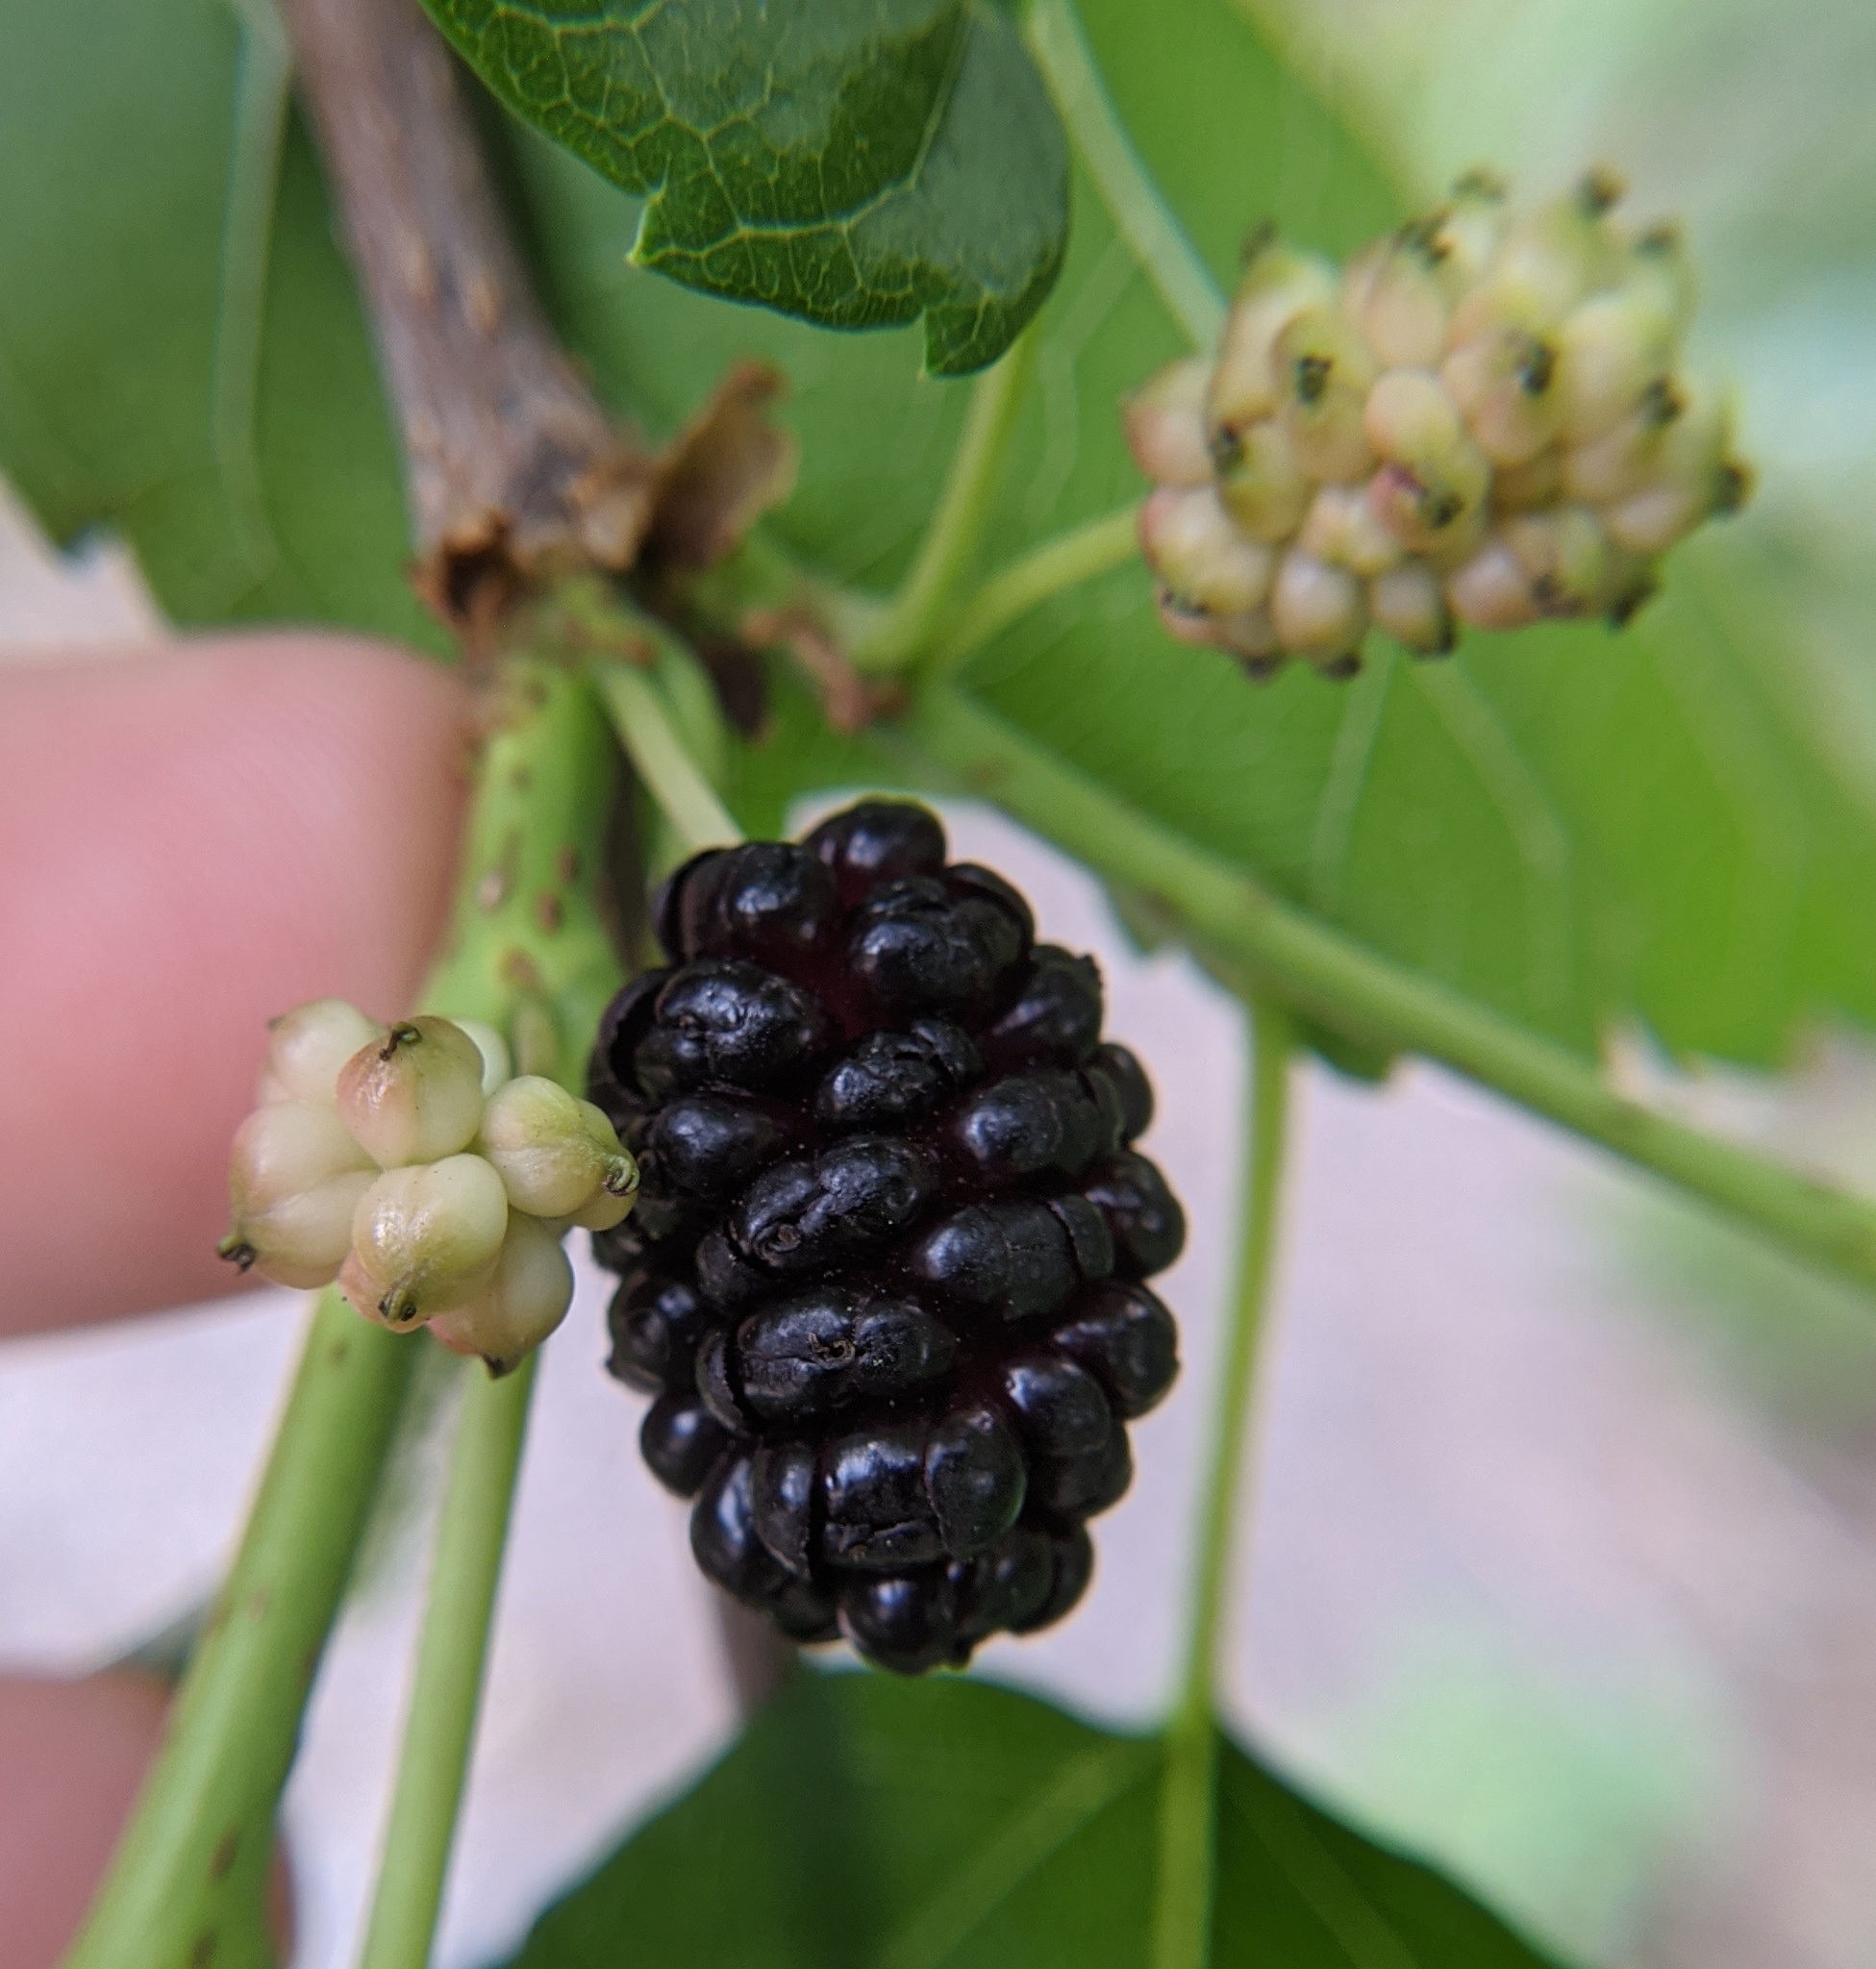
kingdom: Plantae
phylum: Tracheophyta
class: Magnoliopsida
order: Rosales
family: Moraceae
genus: Morus
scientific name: Morus alba
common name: White mulberry
